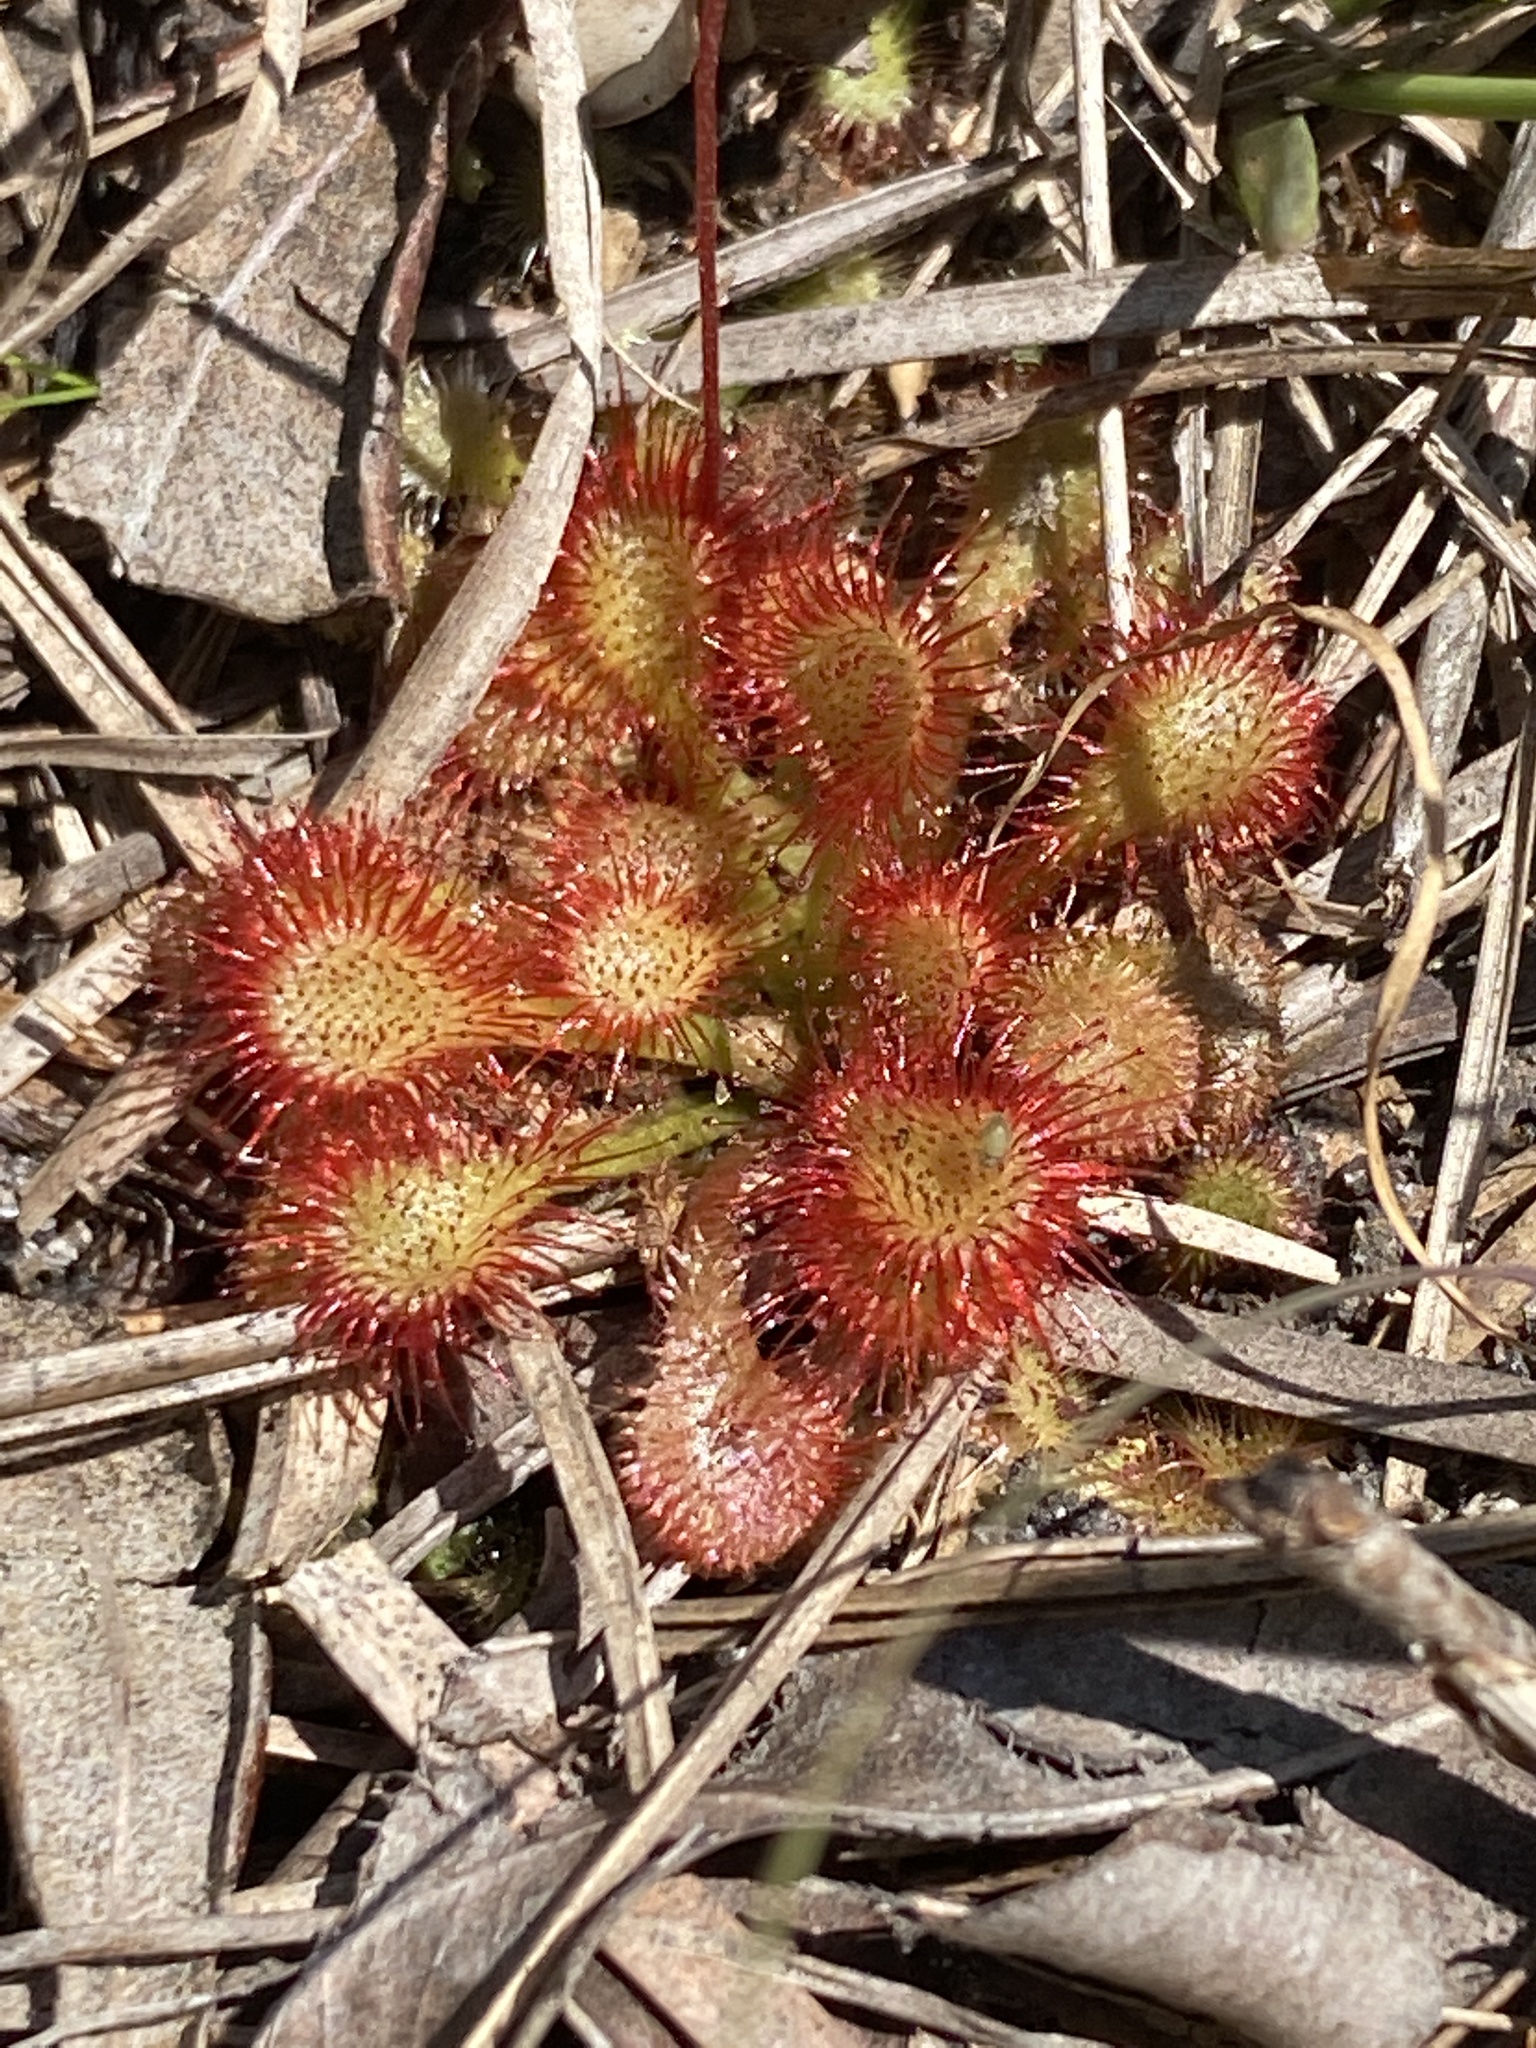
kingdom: Plantae
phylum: Tracheophyta
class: Magnoliopsida
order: Caryophyllales
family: Droseraceae
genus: Drosera
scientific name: Drosera capillaris
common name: Pink sundew
